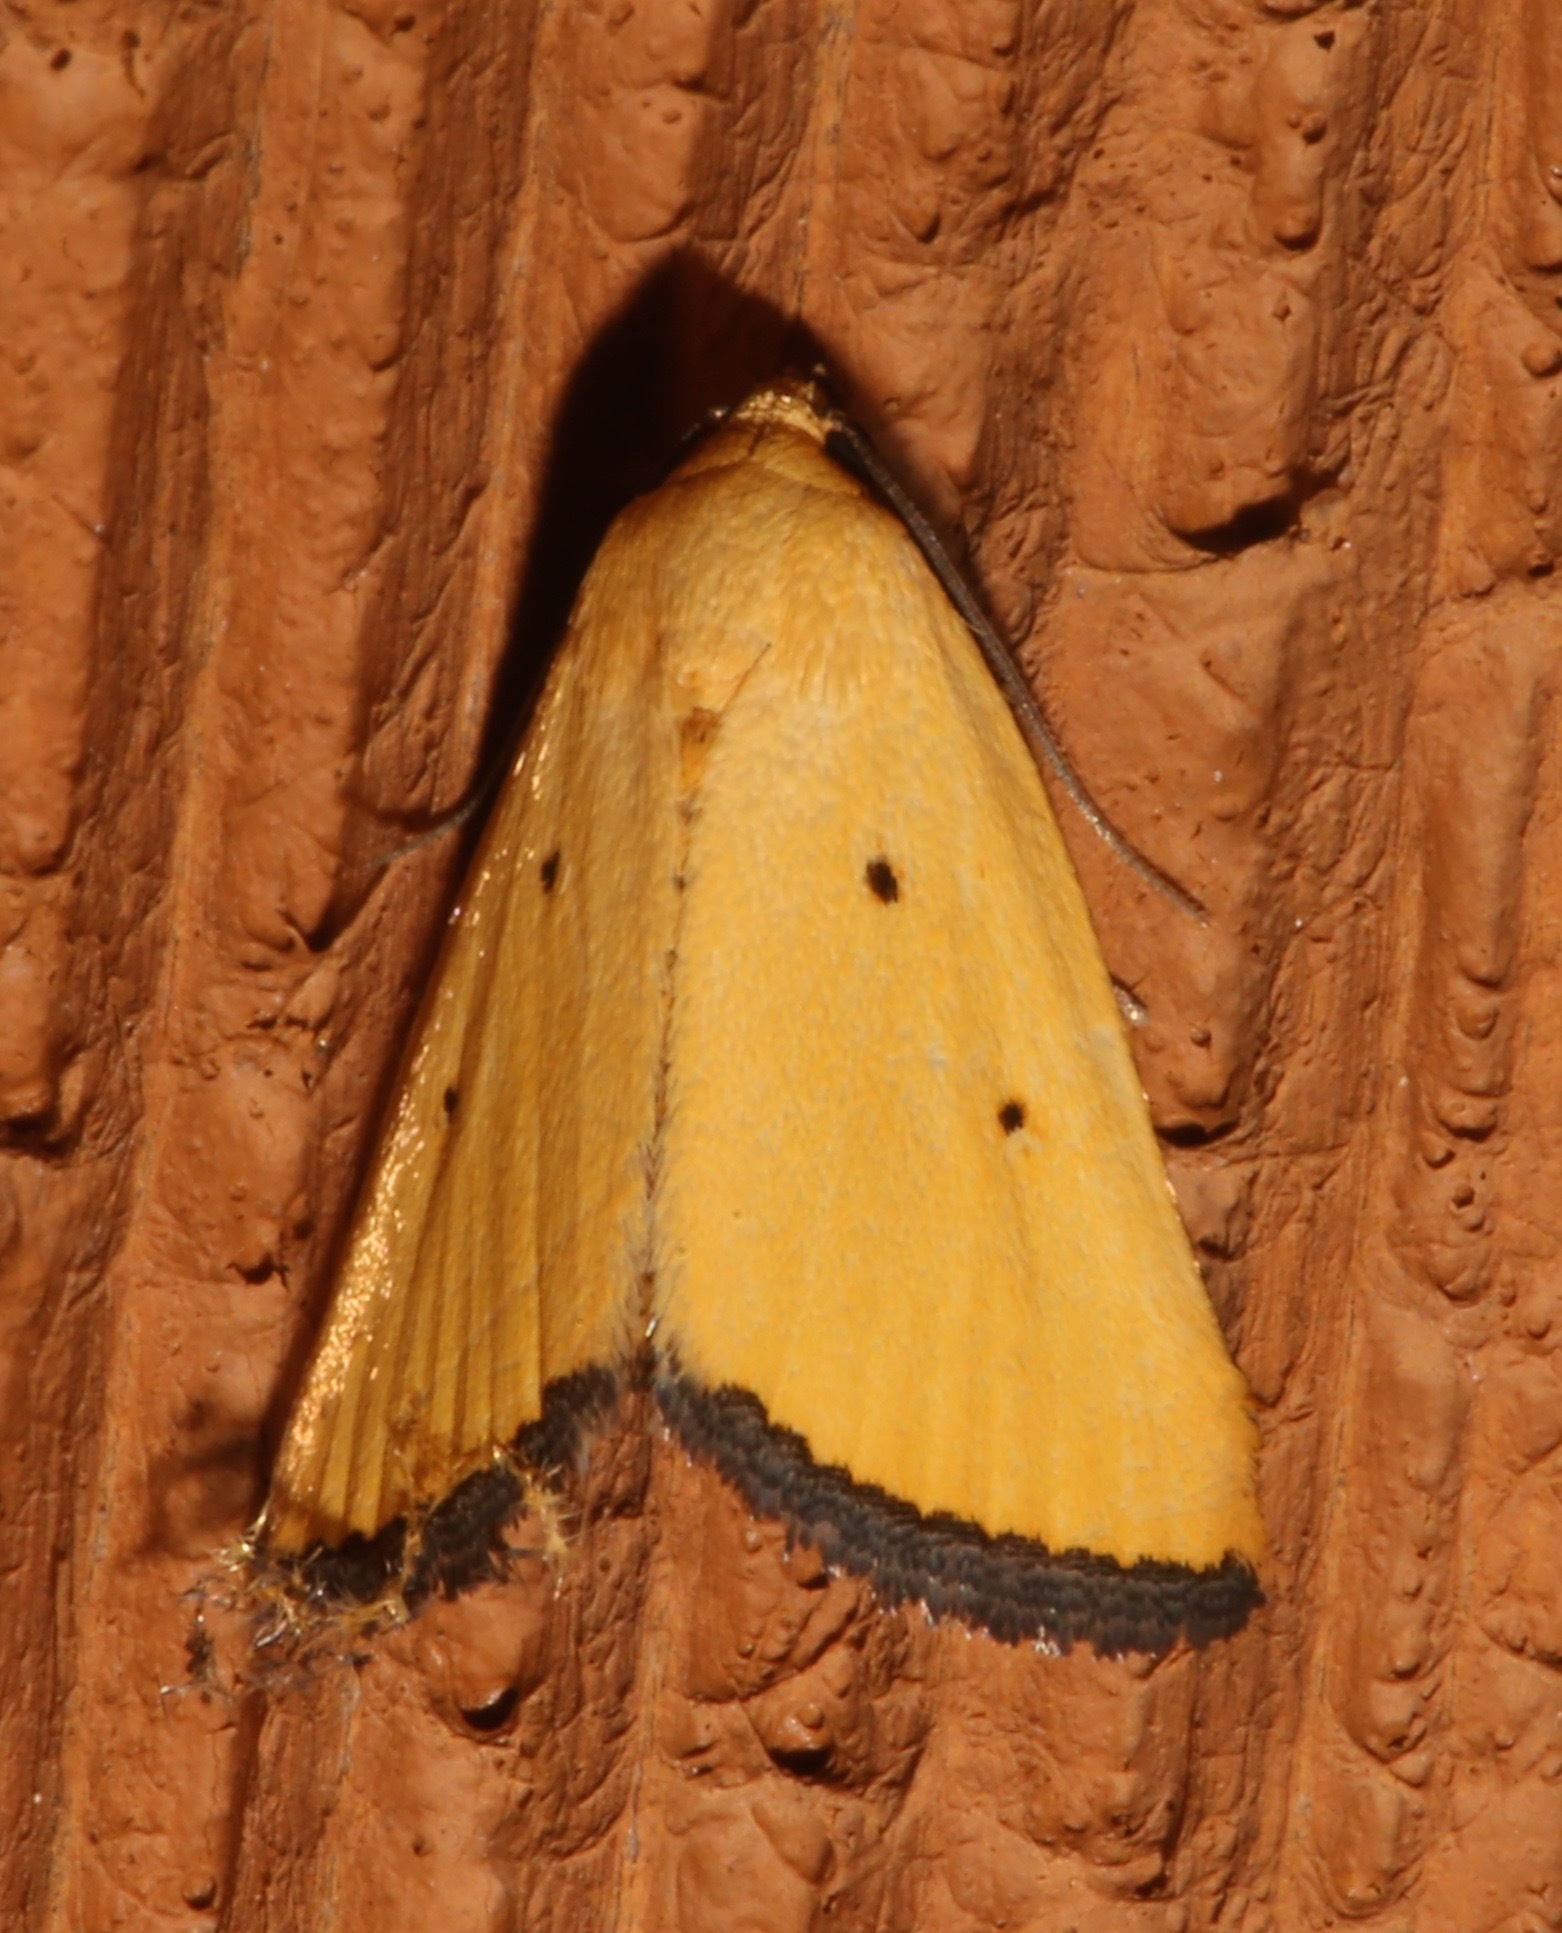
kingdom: Animalia
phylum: Arthropoda
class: Insecta
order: Lepidoptera
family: Noctuidae
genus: Marimatha
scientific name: Marimatha nigrofimbria
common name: Black-bordered lemon moth
